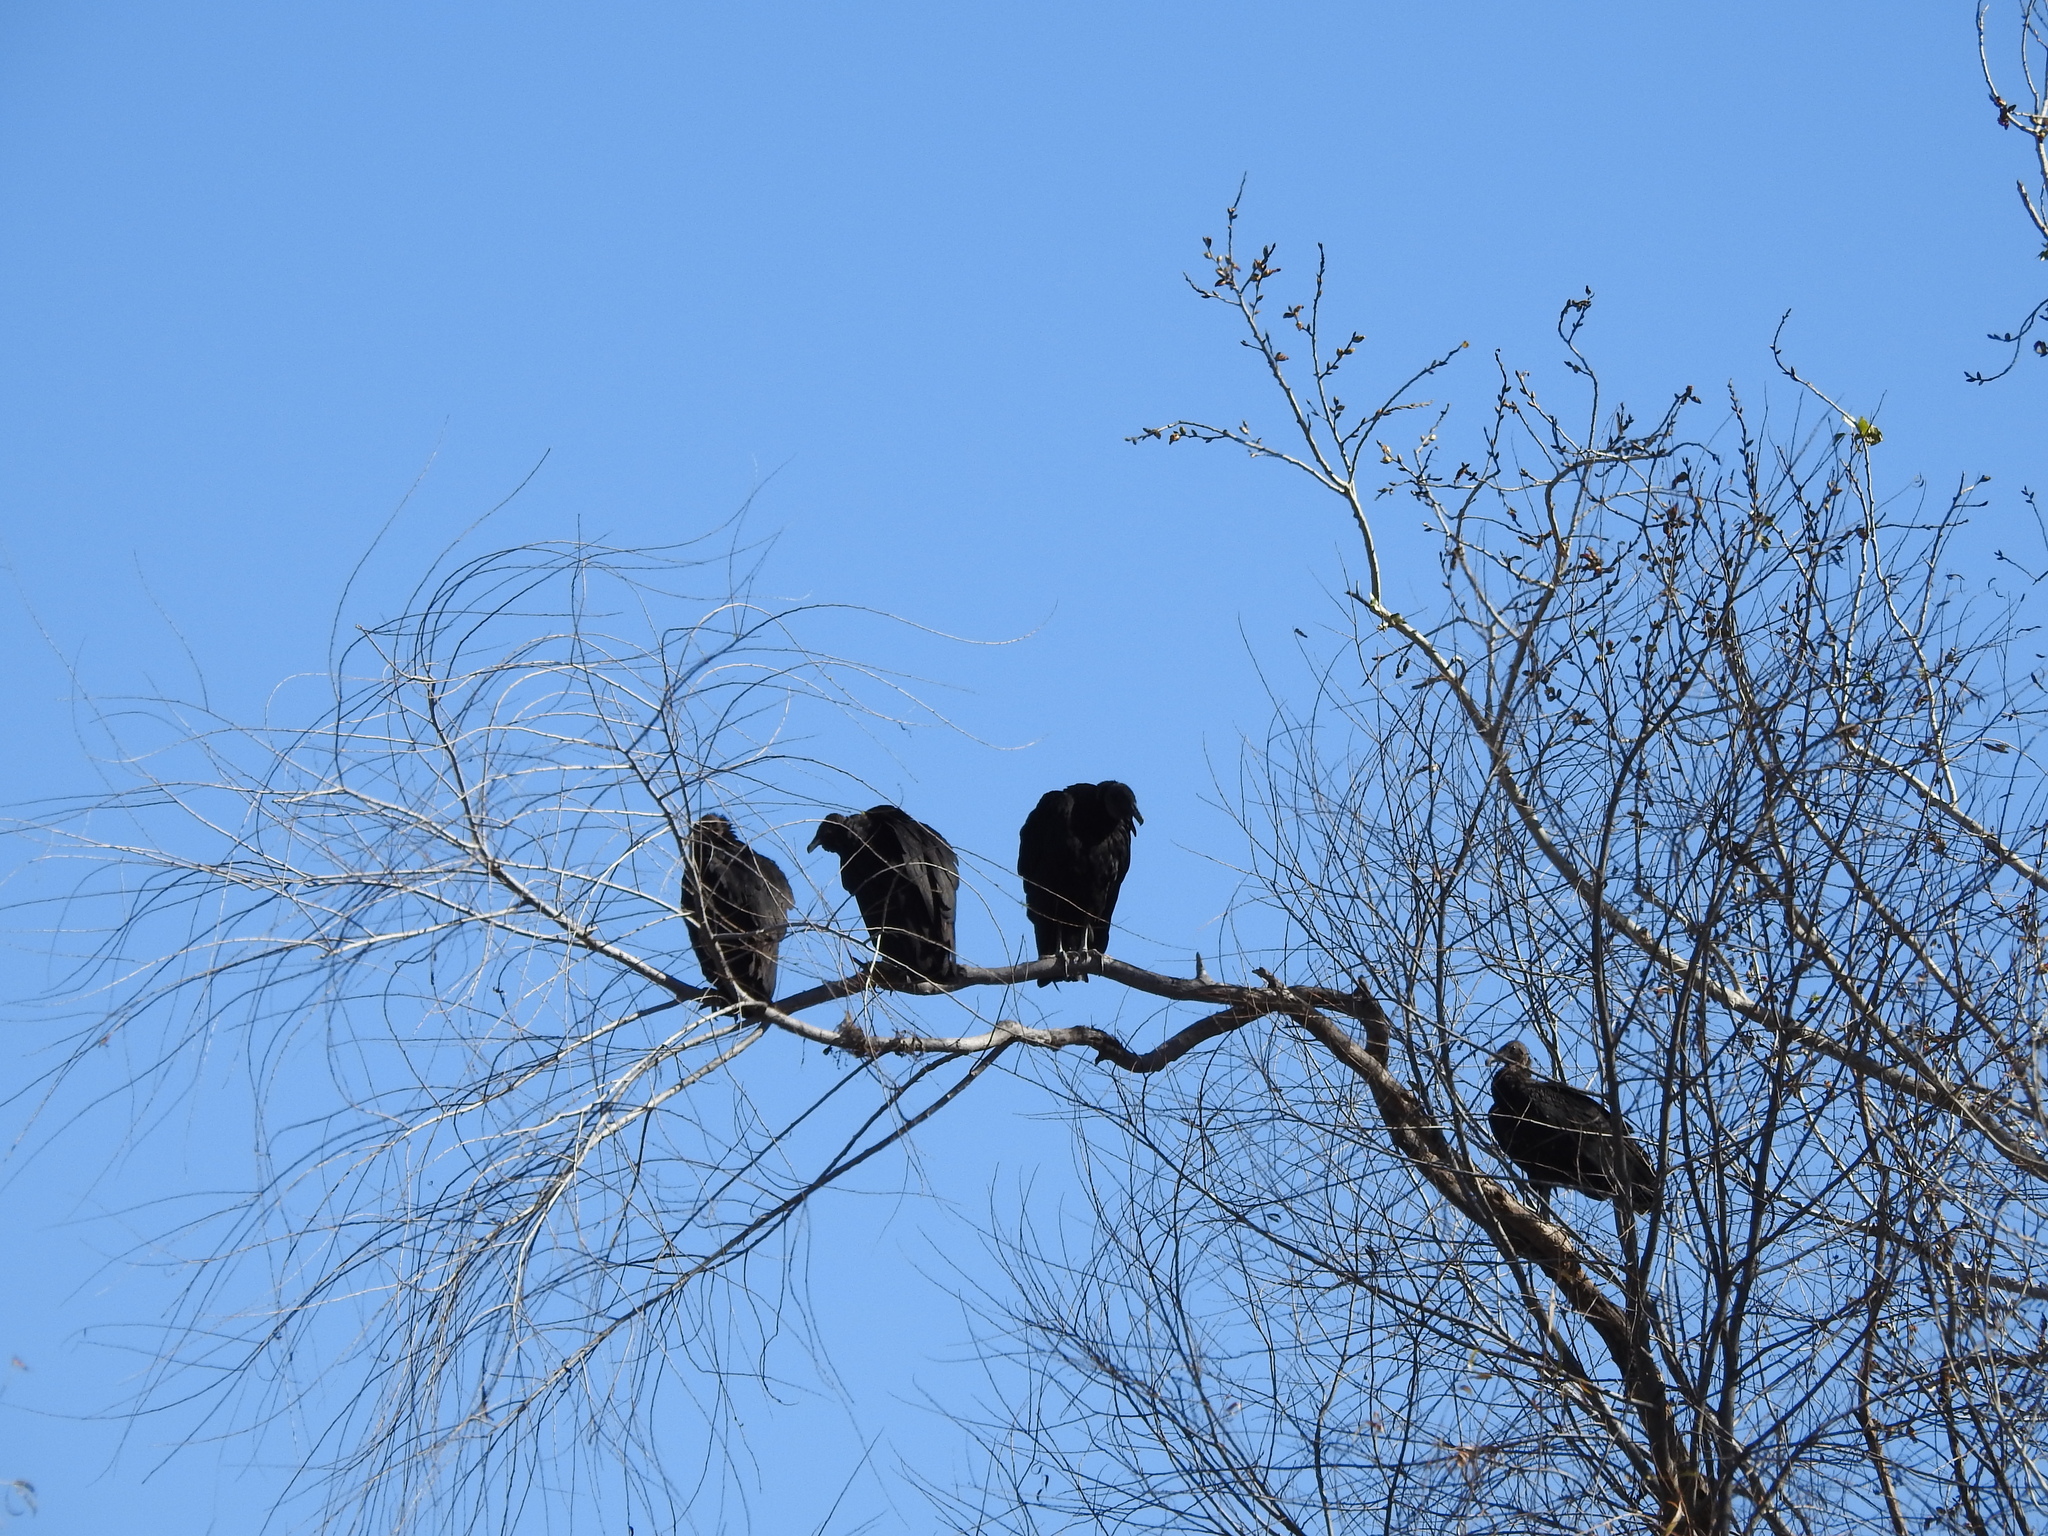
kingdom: Animalia
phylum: Chordata
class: Aves
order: Accipitriformes
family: Cathartidae
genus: Coragyps
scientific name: Coragyps atratus
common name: Black vulture
